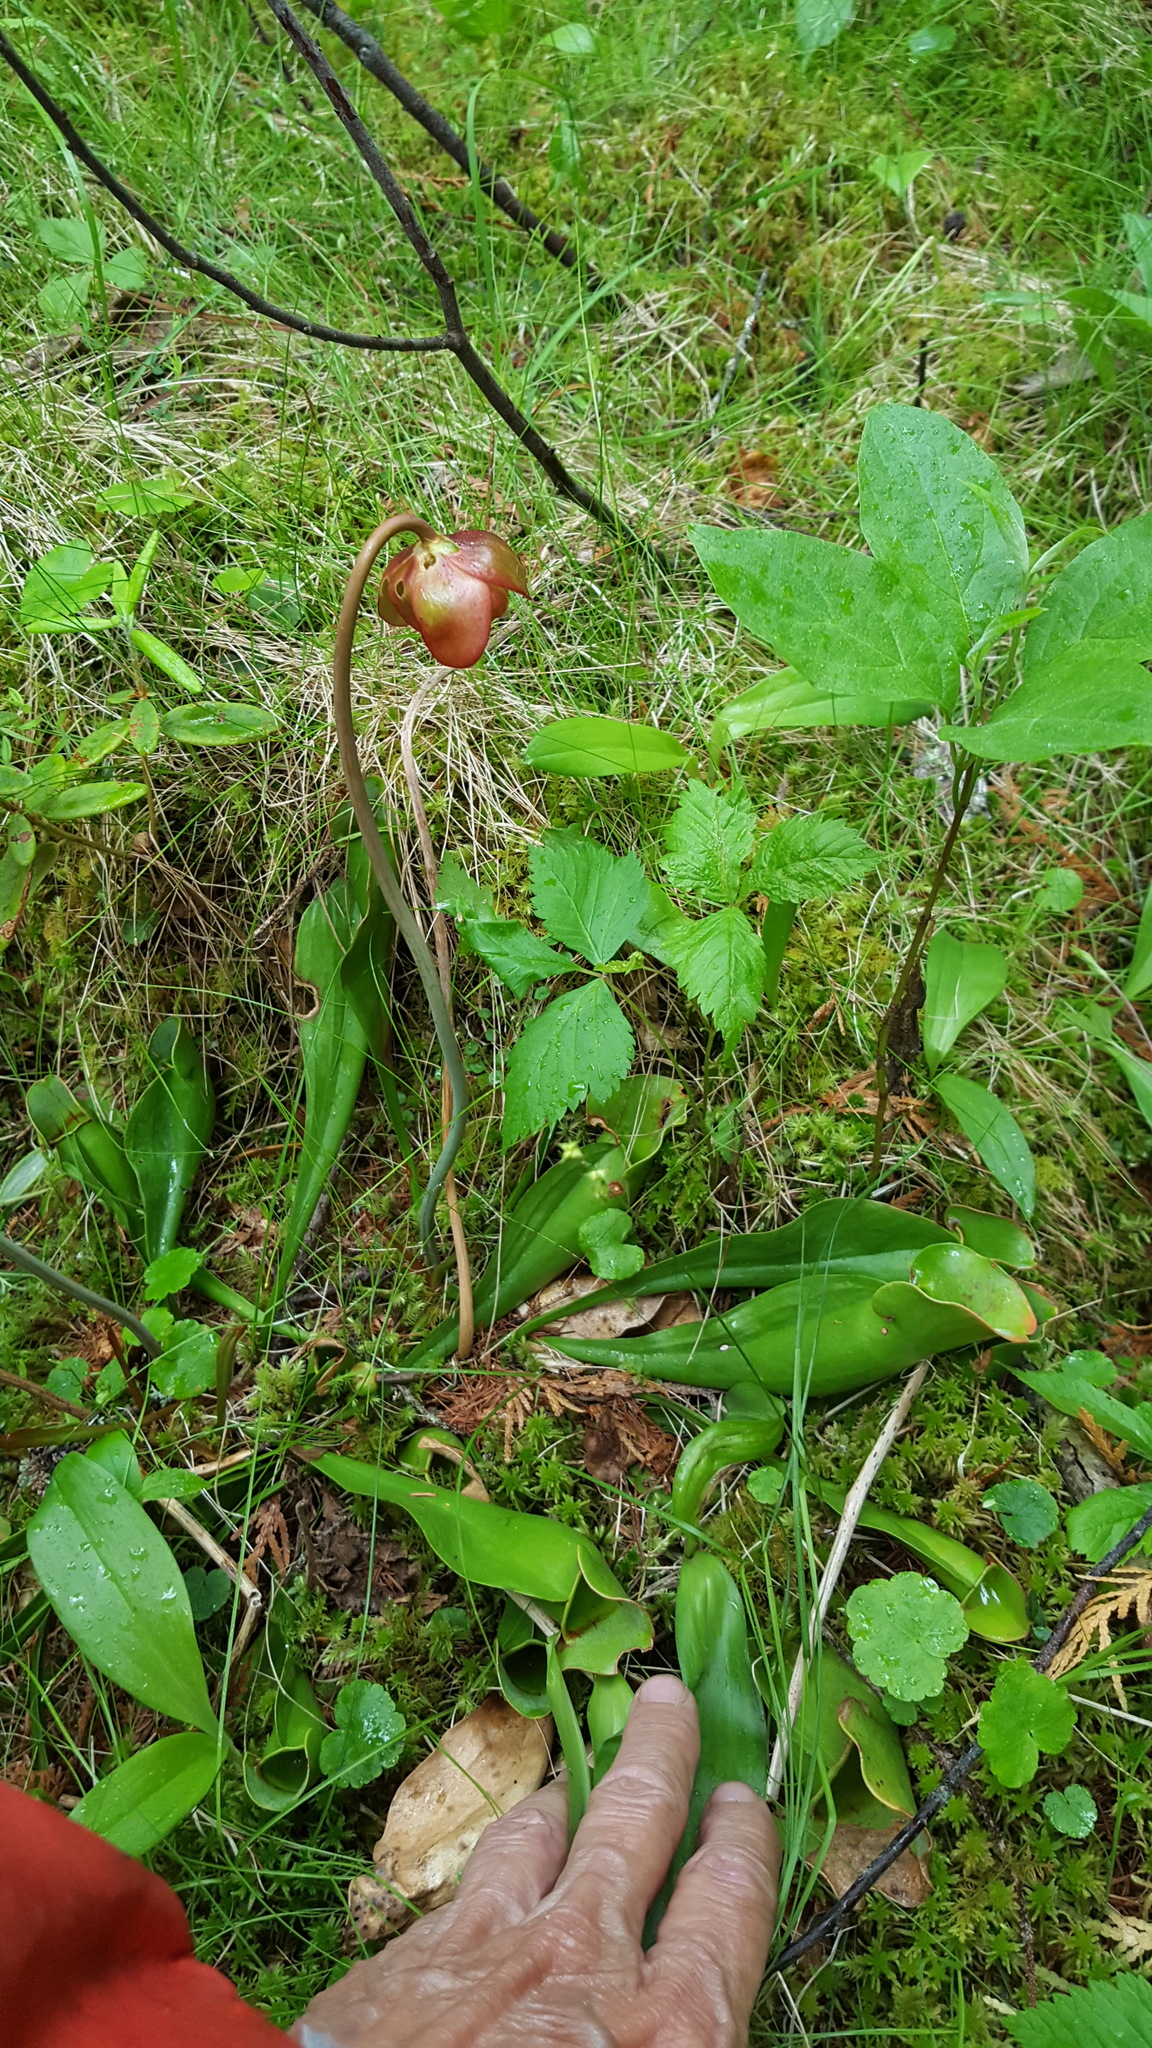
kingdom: Plantae
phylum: Tracheophyta
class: Magnoliopsida
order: Ericales
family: Sarraceniaceae
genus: Sarracenia
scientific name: Sarracenia purpurea
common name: Pitcherplant
